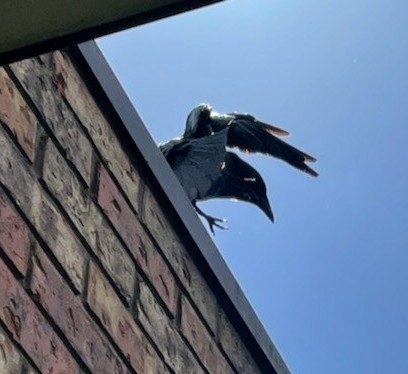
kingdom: Animalia
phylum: Chordata
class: Aves
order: Passeriformes
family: Corvidae
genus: Corvus
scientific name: Corvus brachyrhynchos
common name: American crow
